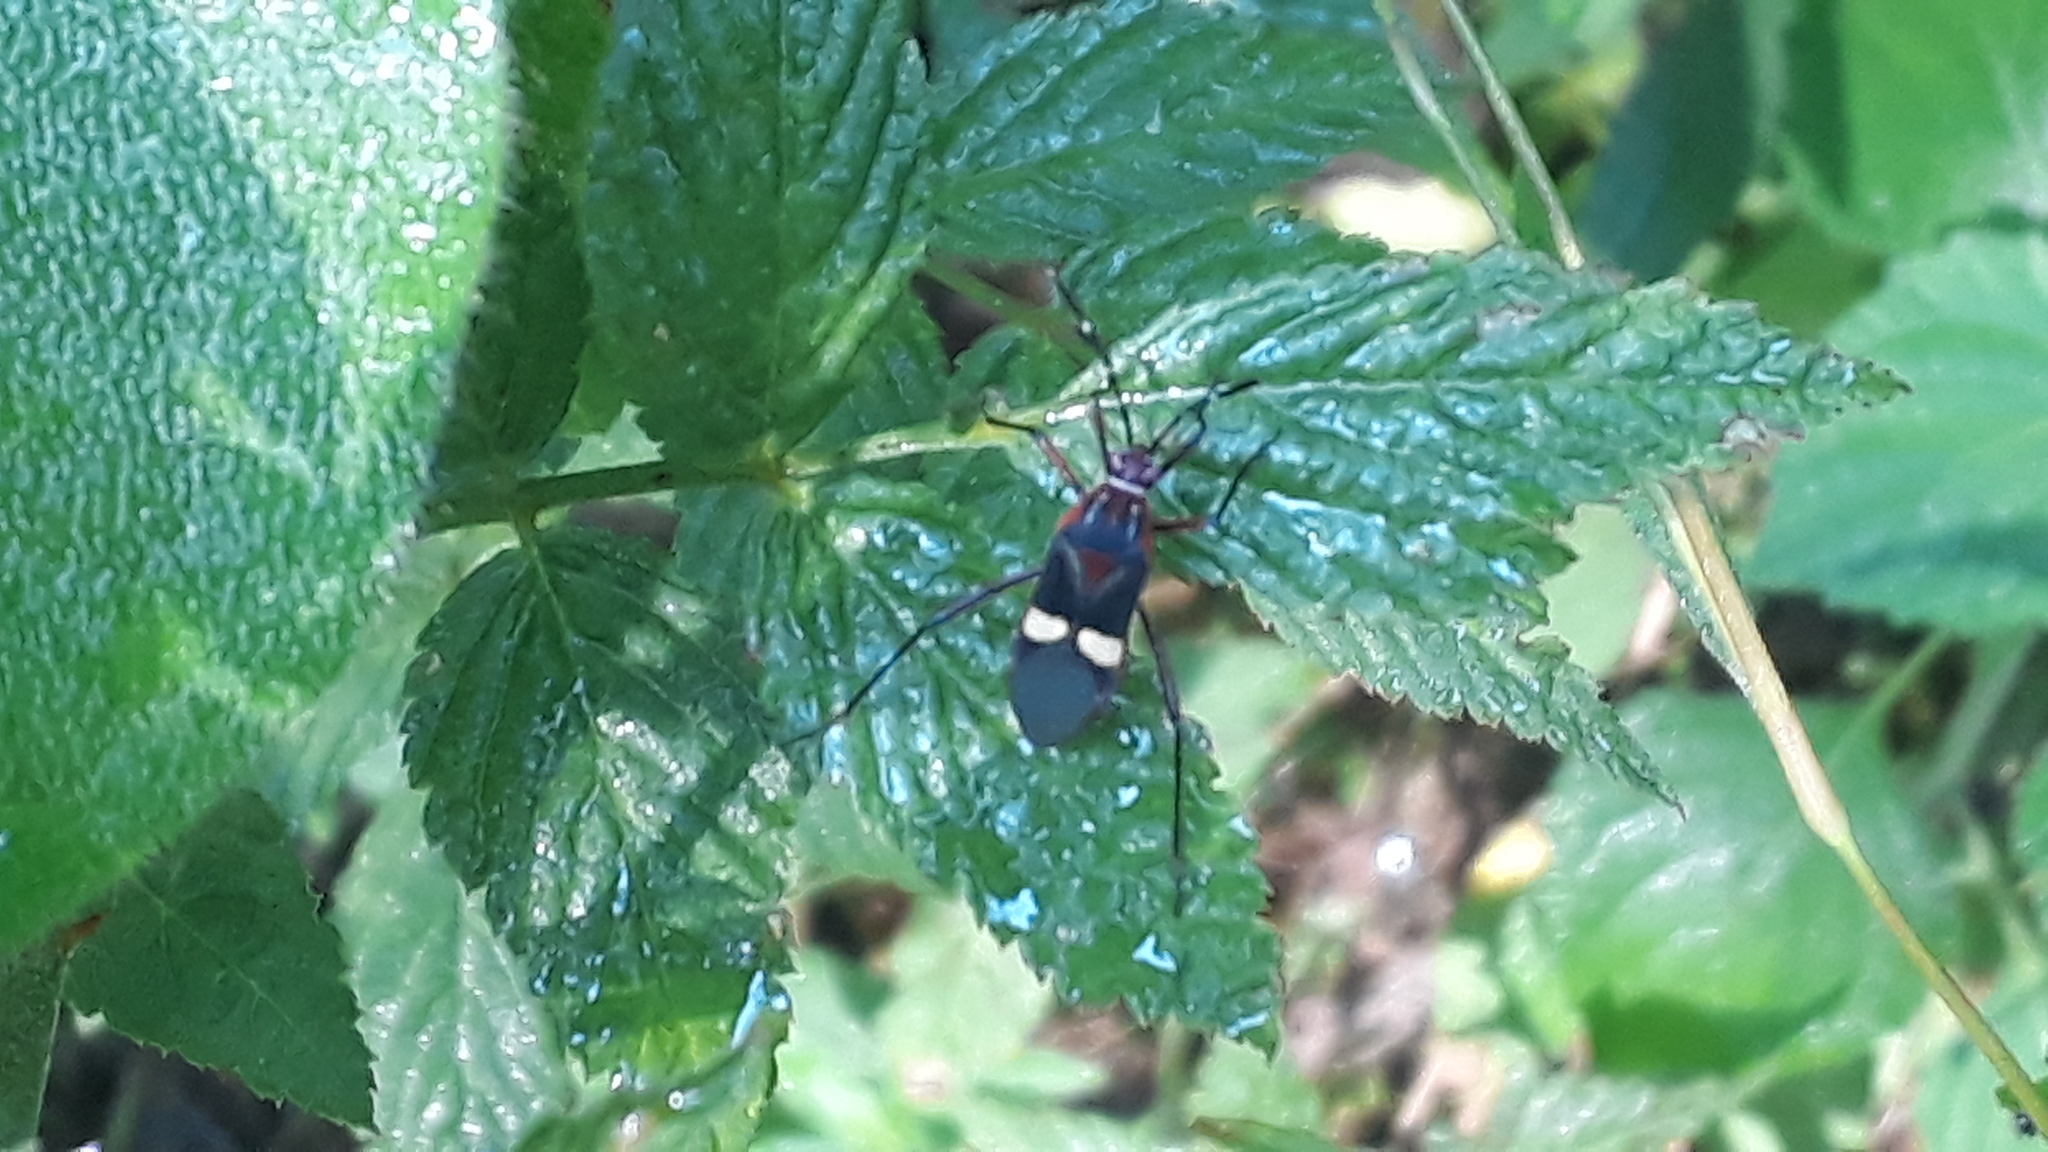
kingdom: Animalia
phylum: Arthropoda
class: Insecta
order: Hemiptera
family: Coreidae
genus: Hypselonotus
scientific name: Hypselonotus interruptus
